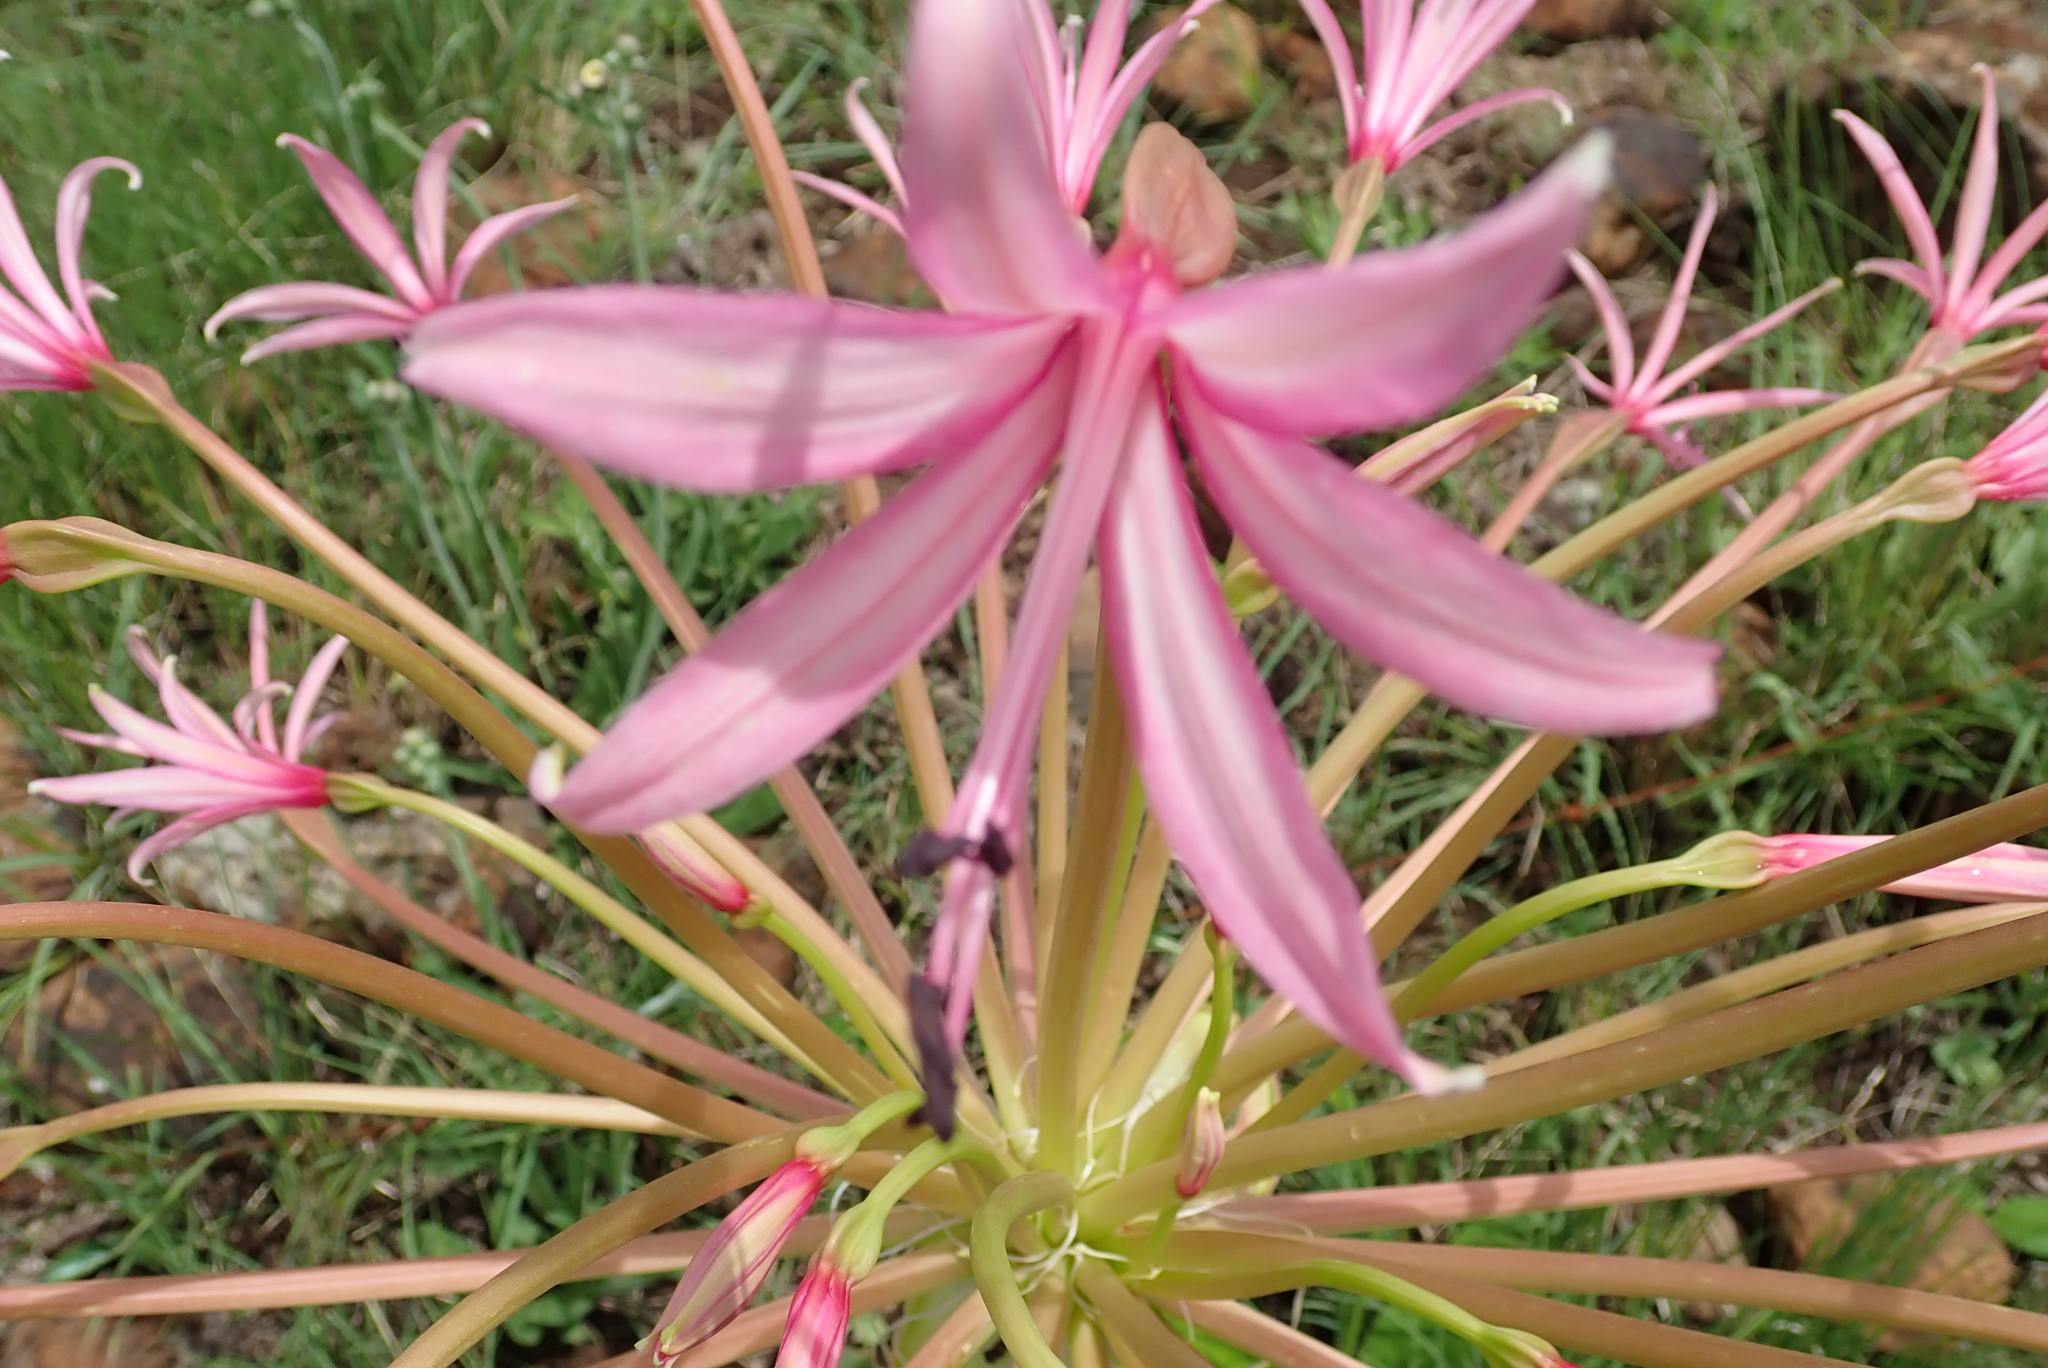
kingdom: Plantae
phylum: Tracheophyta
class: Liliopsida
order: Asparagales
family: Amaryllidaceae
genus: Brunsvigia
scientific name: Brunsvigia radulosa
